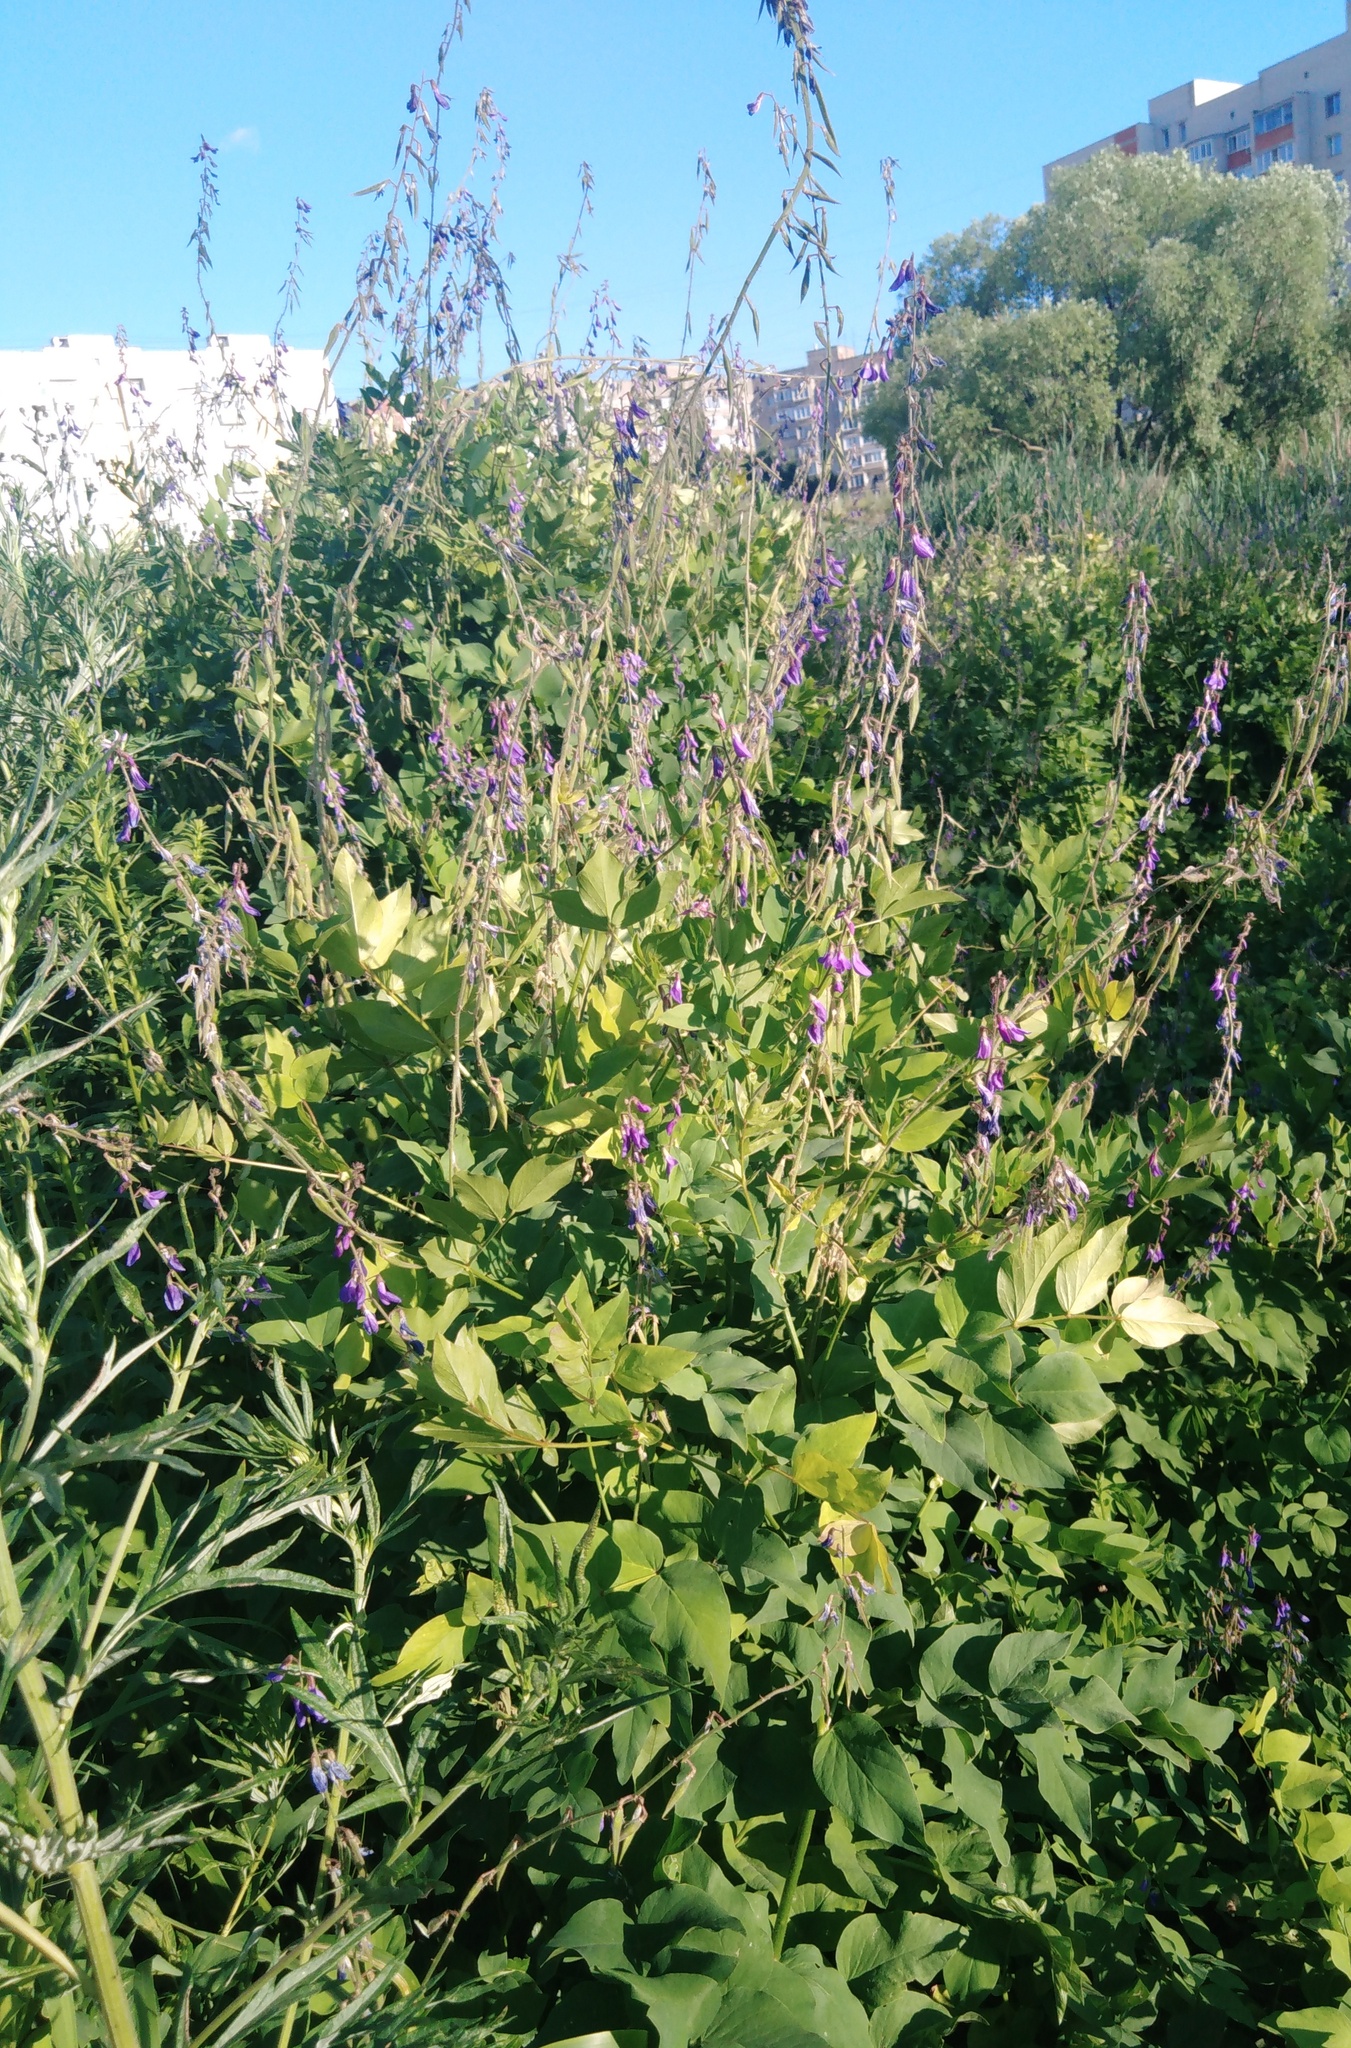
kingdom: Plantae
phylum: Tracheophyta
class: Magnoliopsida
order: Fabales
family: Fabaceae
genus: Galega
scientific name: Galega orientalis
